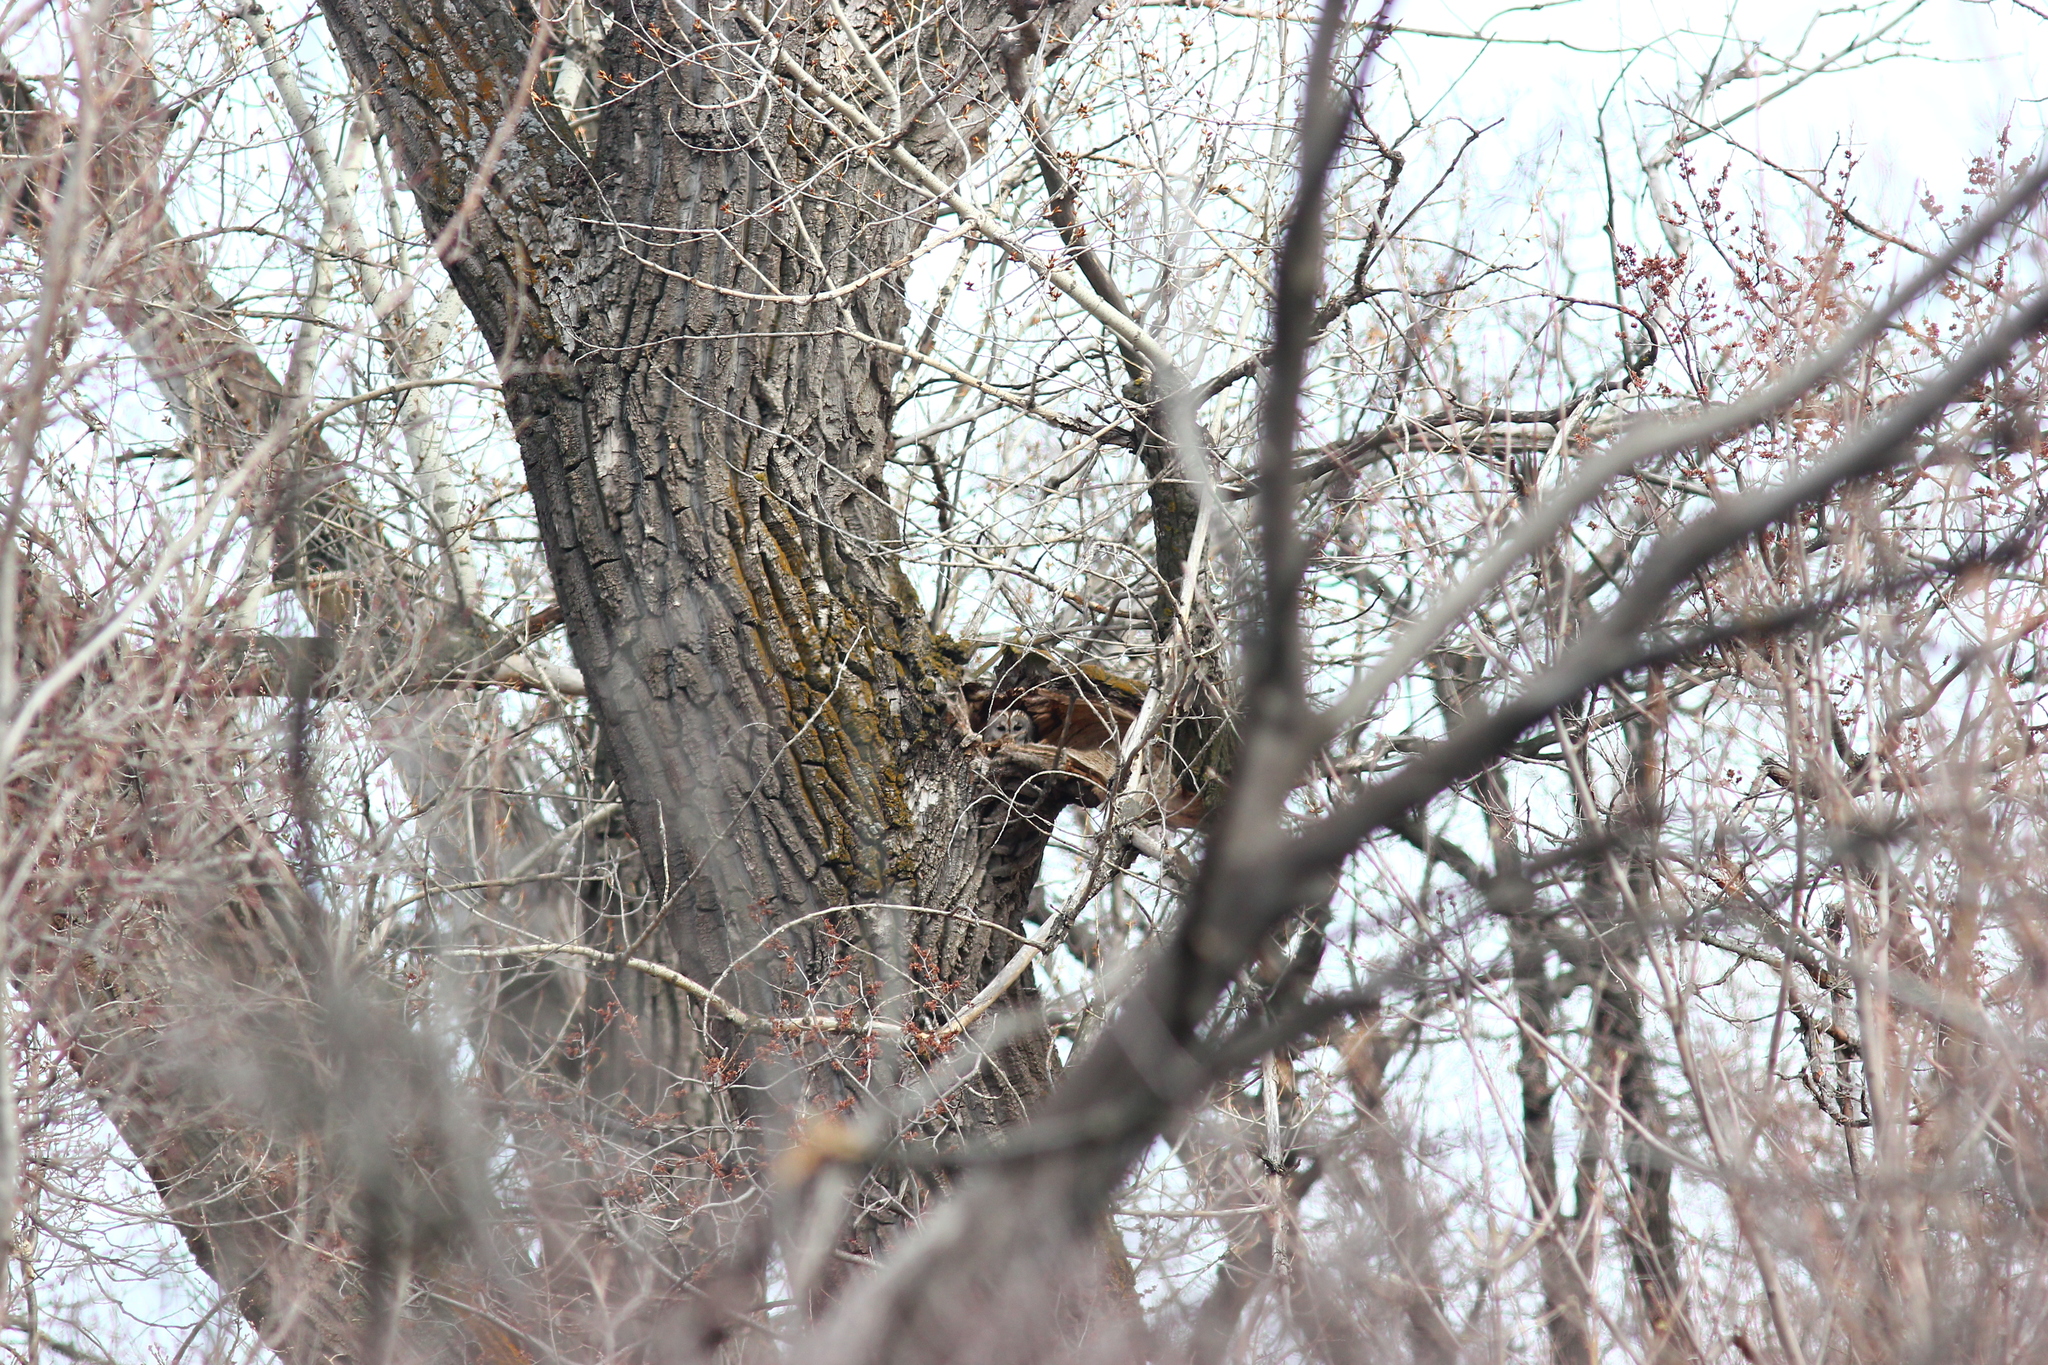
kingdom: Animalia
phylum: Chordata
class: Aves
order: Strigiformes
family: Strigidae
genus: Strix
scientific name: Strix aluco
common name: Tawny owl
